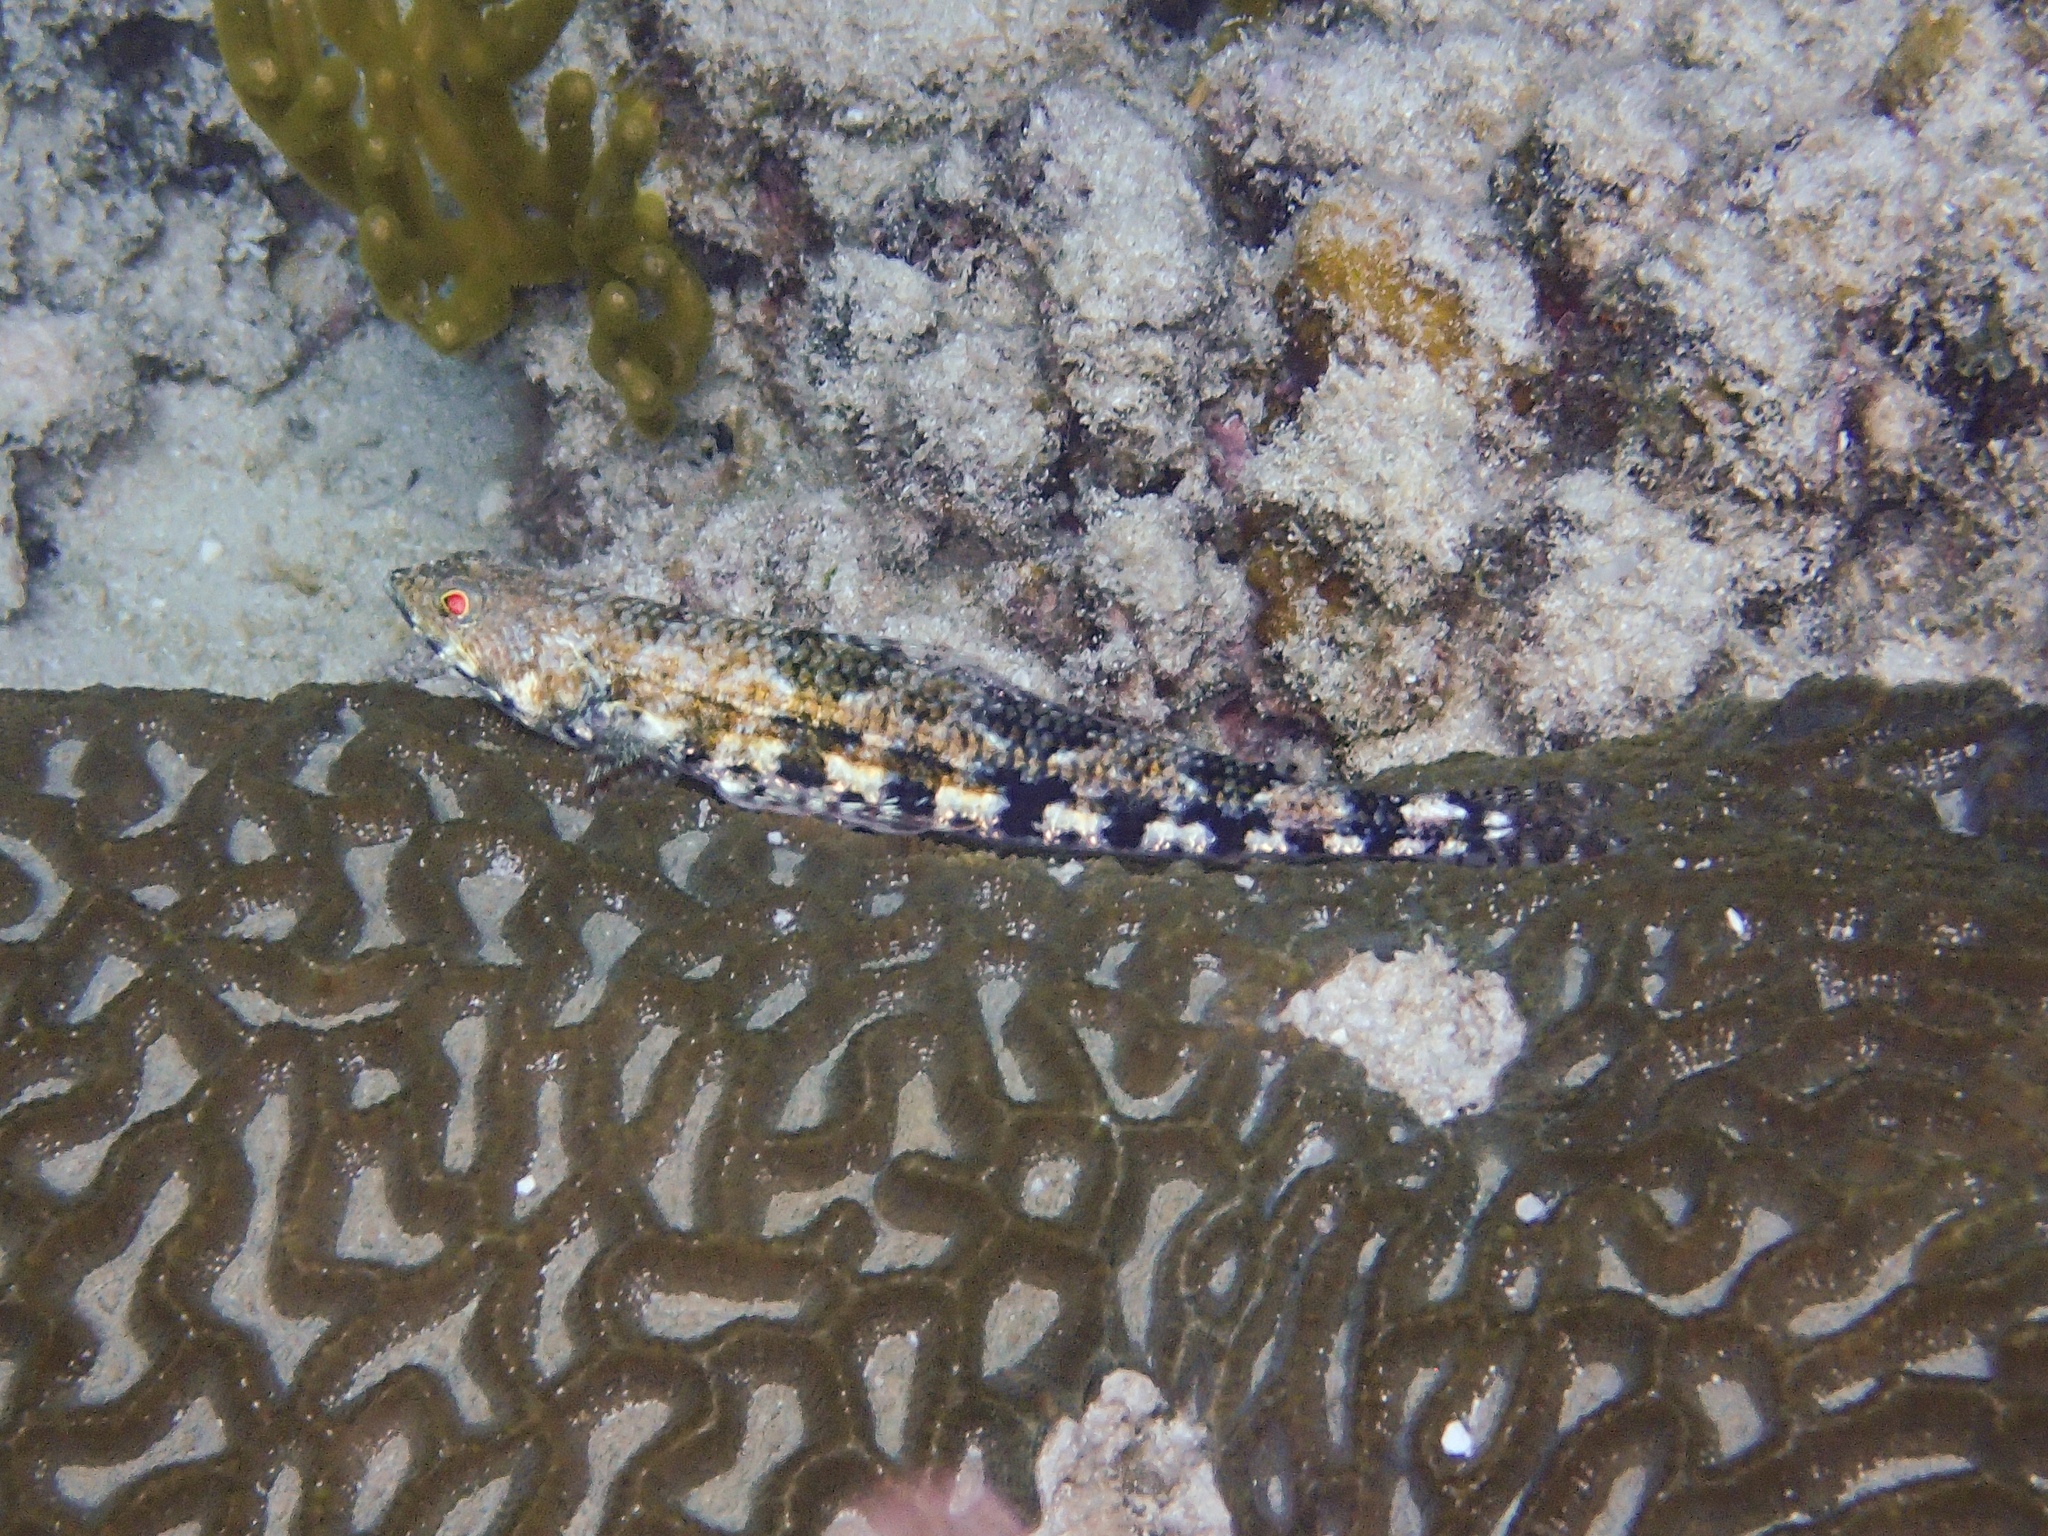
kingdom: Animalia
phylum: Chordata
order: Aulopiformes
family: Synodontidae
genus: Synodus
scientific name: Synodus binotatus
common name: Twospot lizardfish
